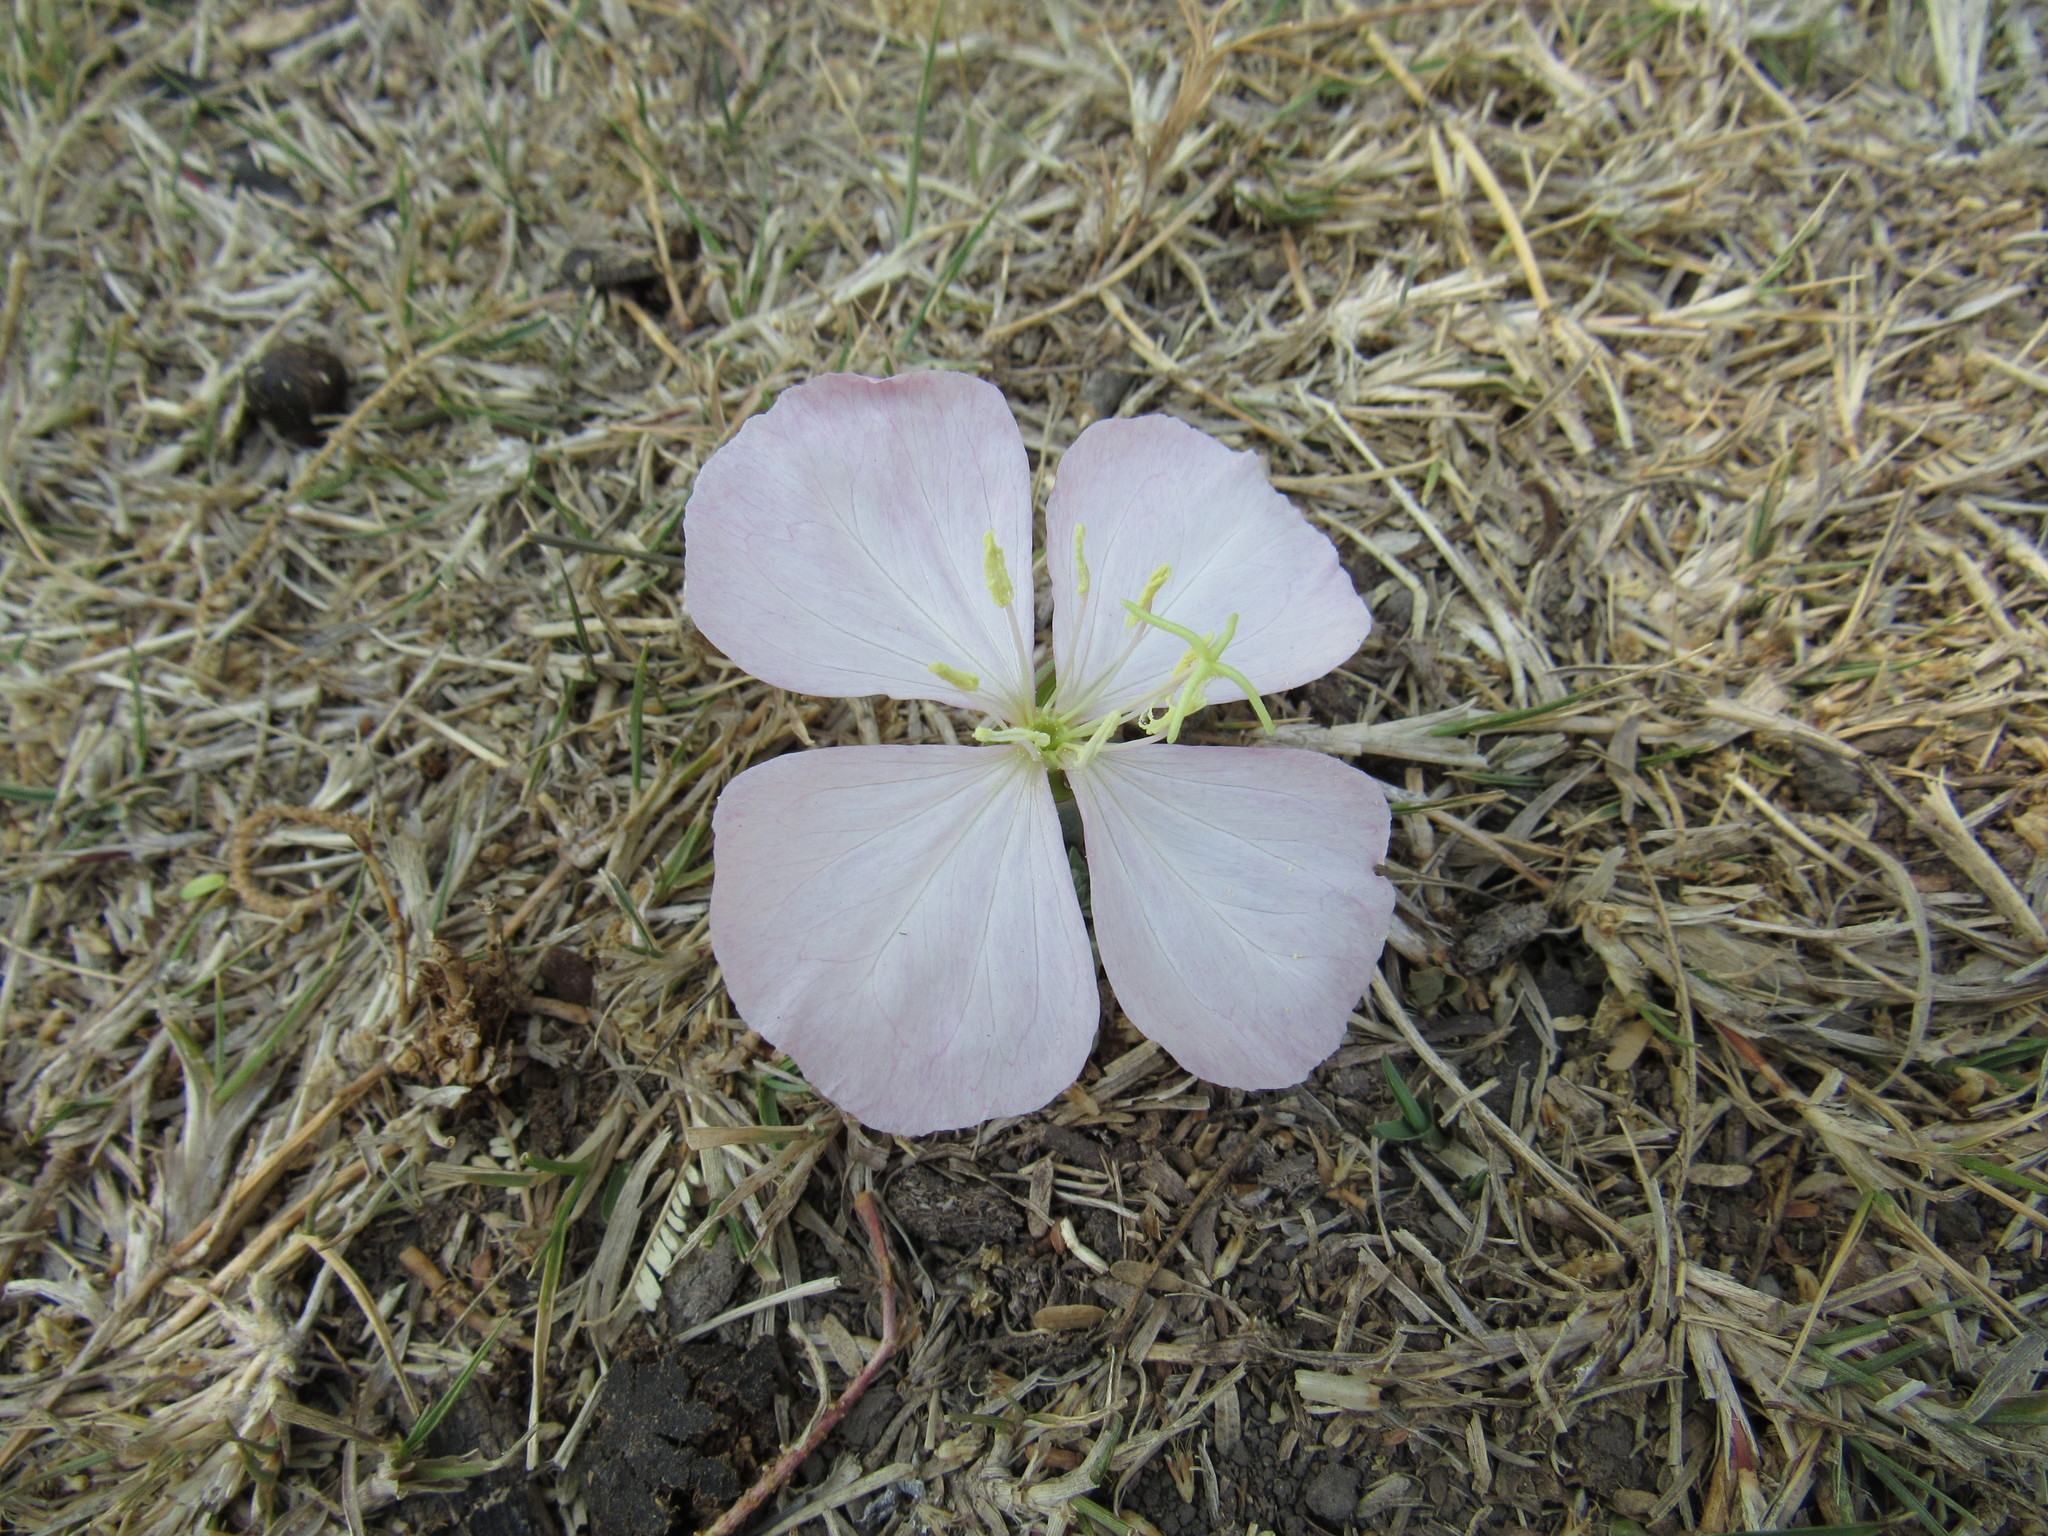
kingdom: Plantae
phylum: Tracheophyta
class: Magnoliopsida
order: Myrtales
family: Onagraceae
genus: Oenothera
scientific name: Oenothera tetraptera
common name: Four-wing evening-primrose
